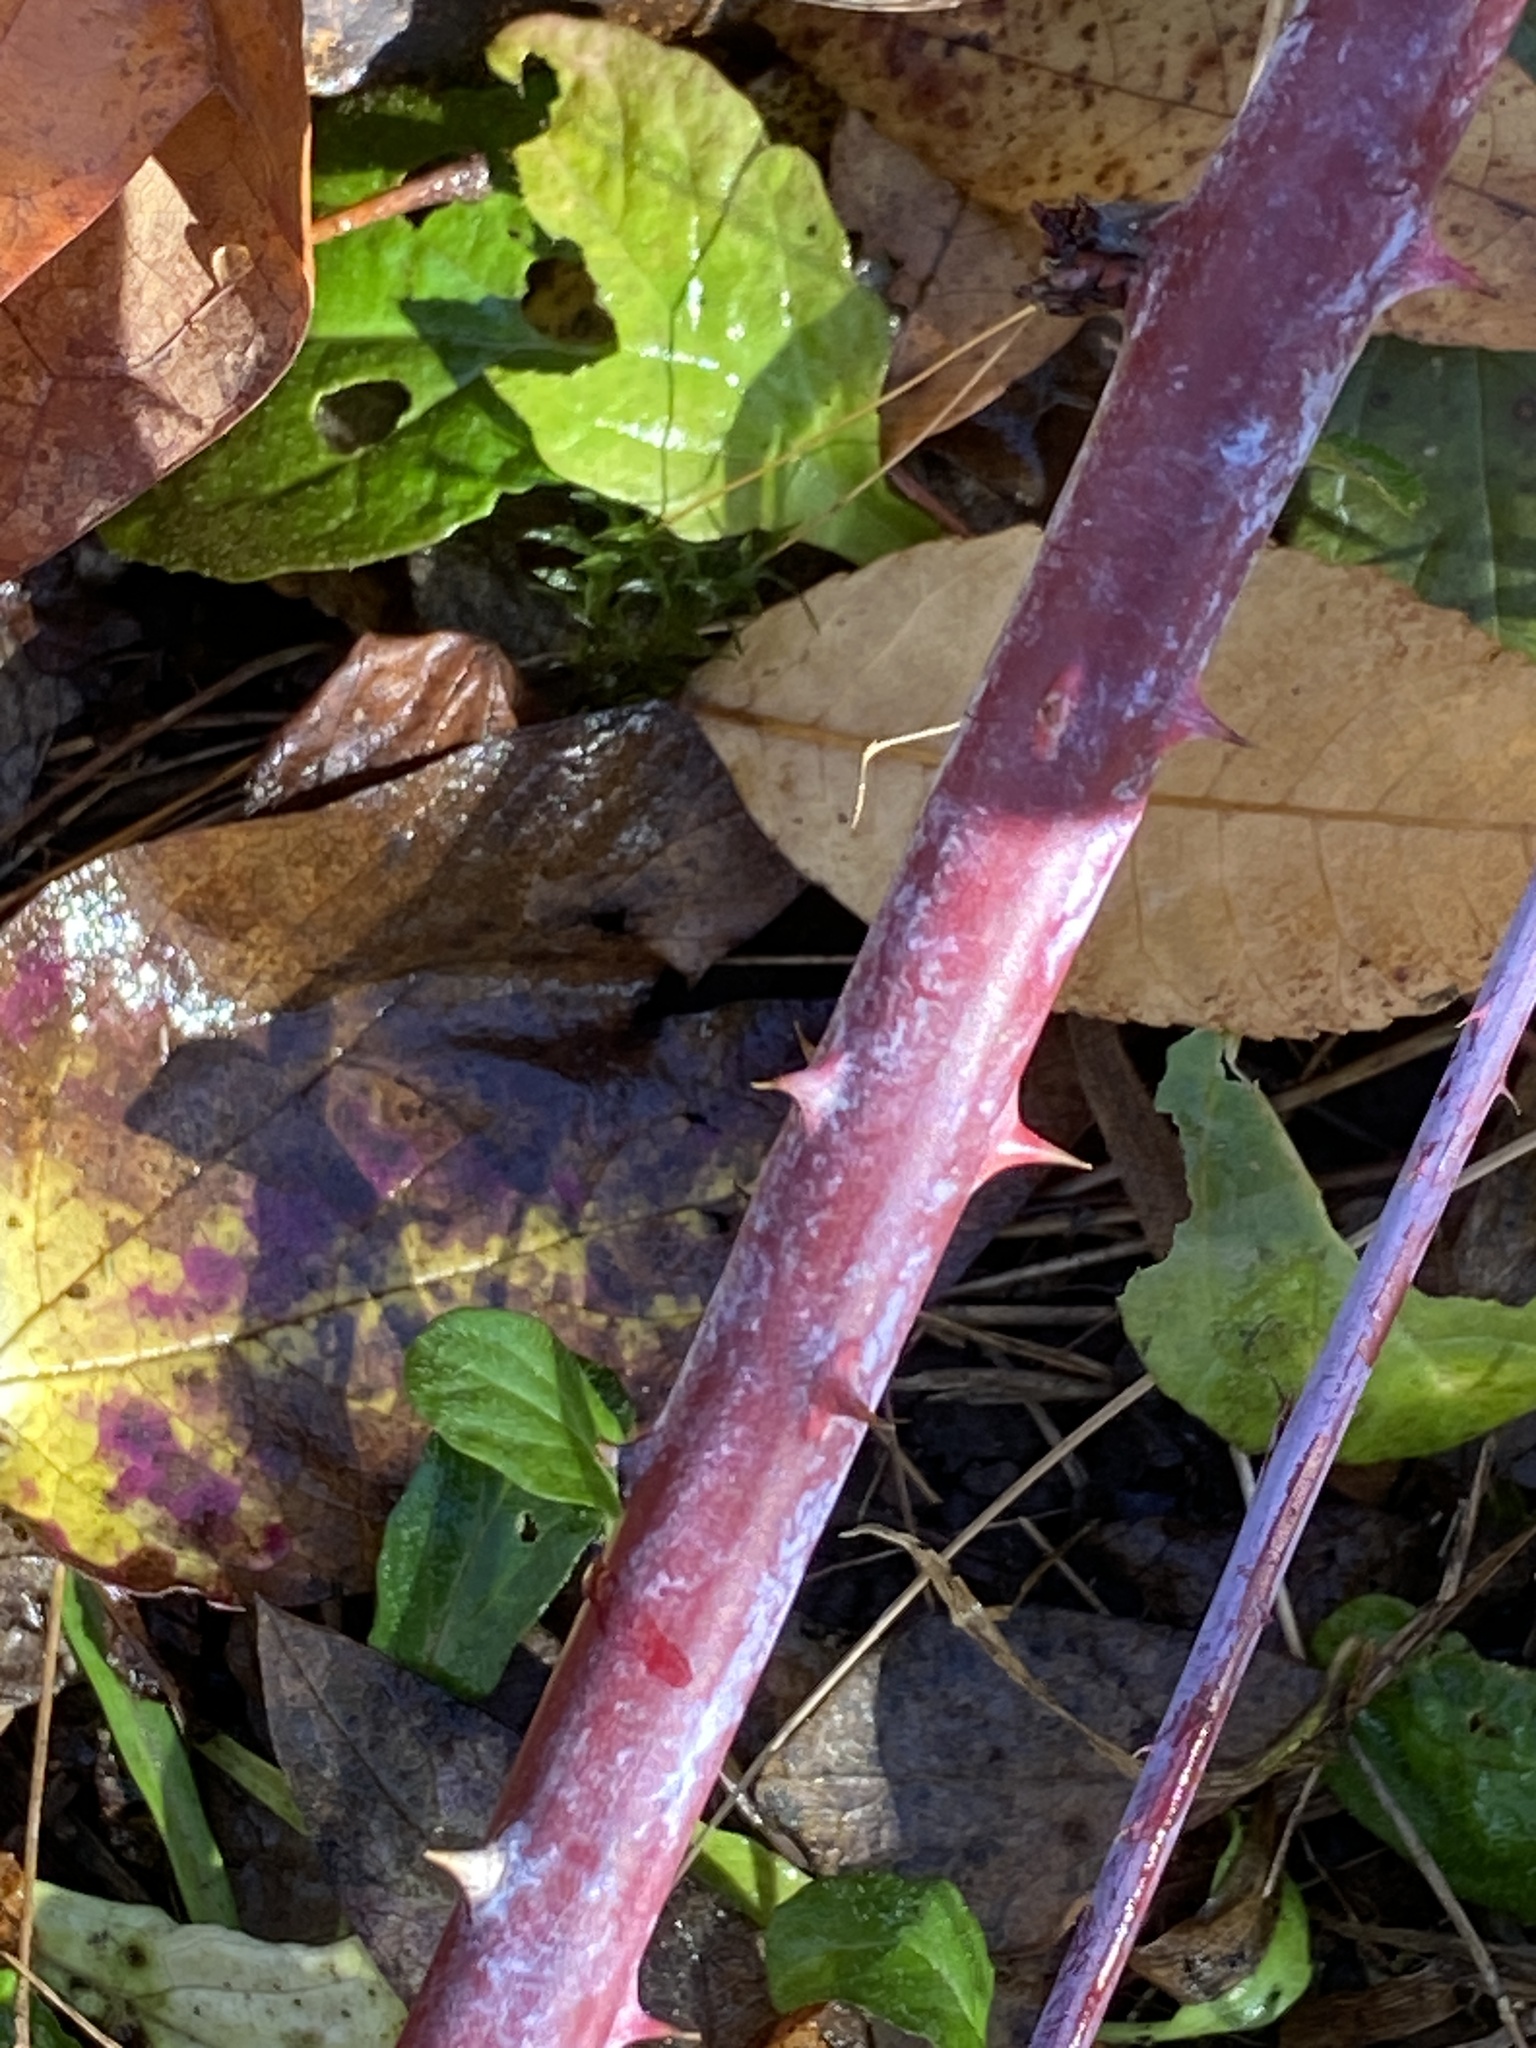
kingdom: Plantae
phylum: Tracheophyta
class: Magnoliopsida
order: Rosales
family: Rosaceae
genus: Rubus
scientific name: Rubus occidentalis
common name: Black raspberry
